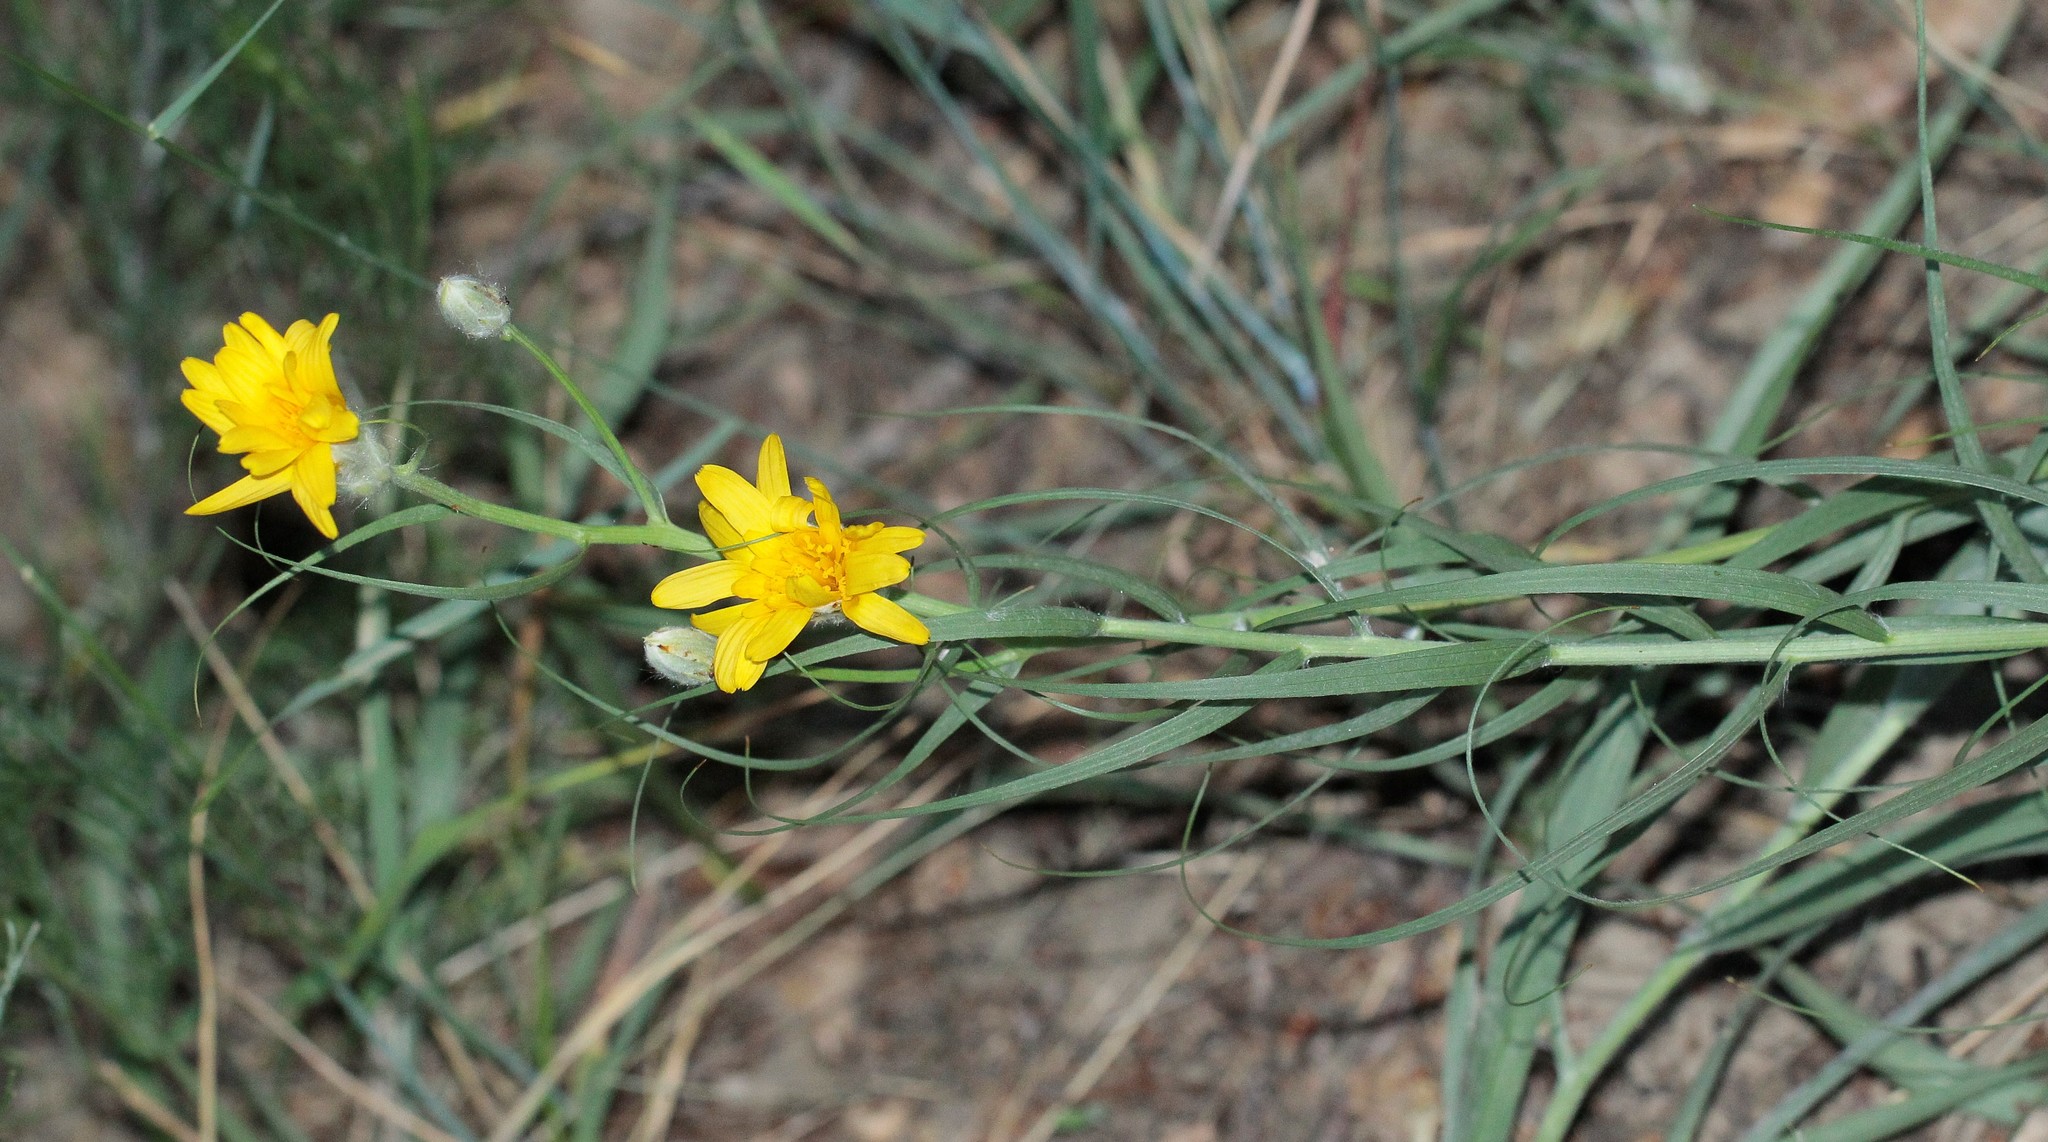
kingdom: Plantae
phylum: Tracheophyta
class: Magnoliopsida
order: Asterales
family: Asteraceae
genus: Gelasia
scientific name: Gelasia ensifolia
